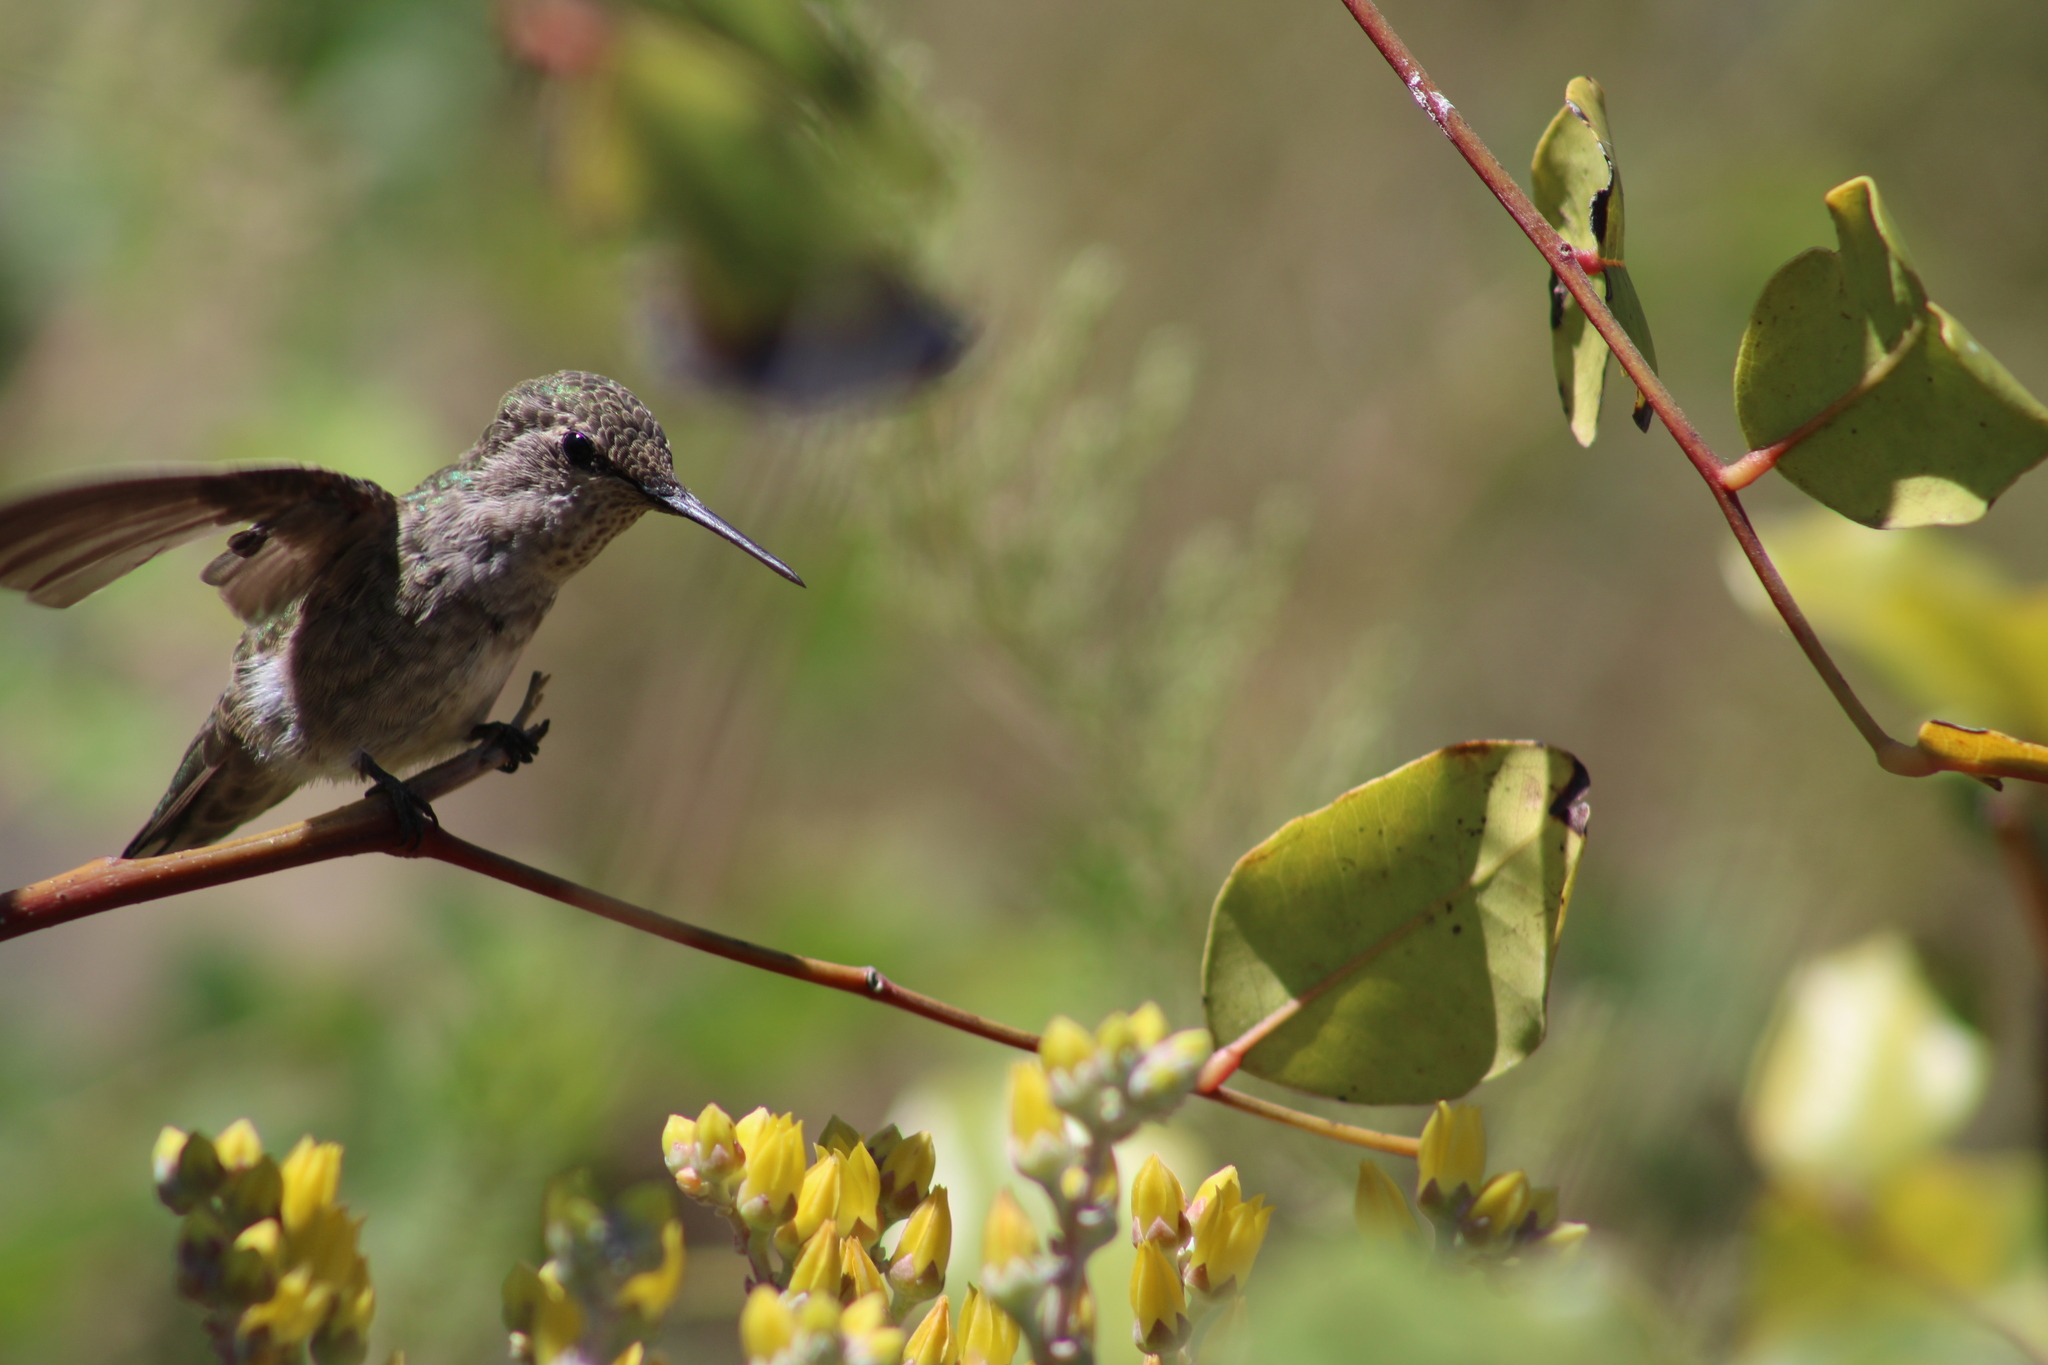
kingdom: Animalia
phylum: Chordata
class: Aves
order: Apodiformes
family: Trochilidae
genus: Calypte
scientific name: Calypte anna
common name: Anna's hummingbird
